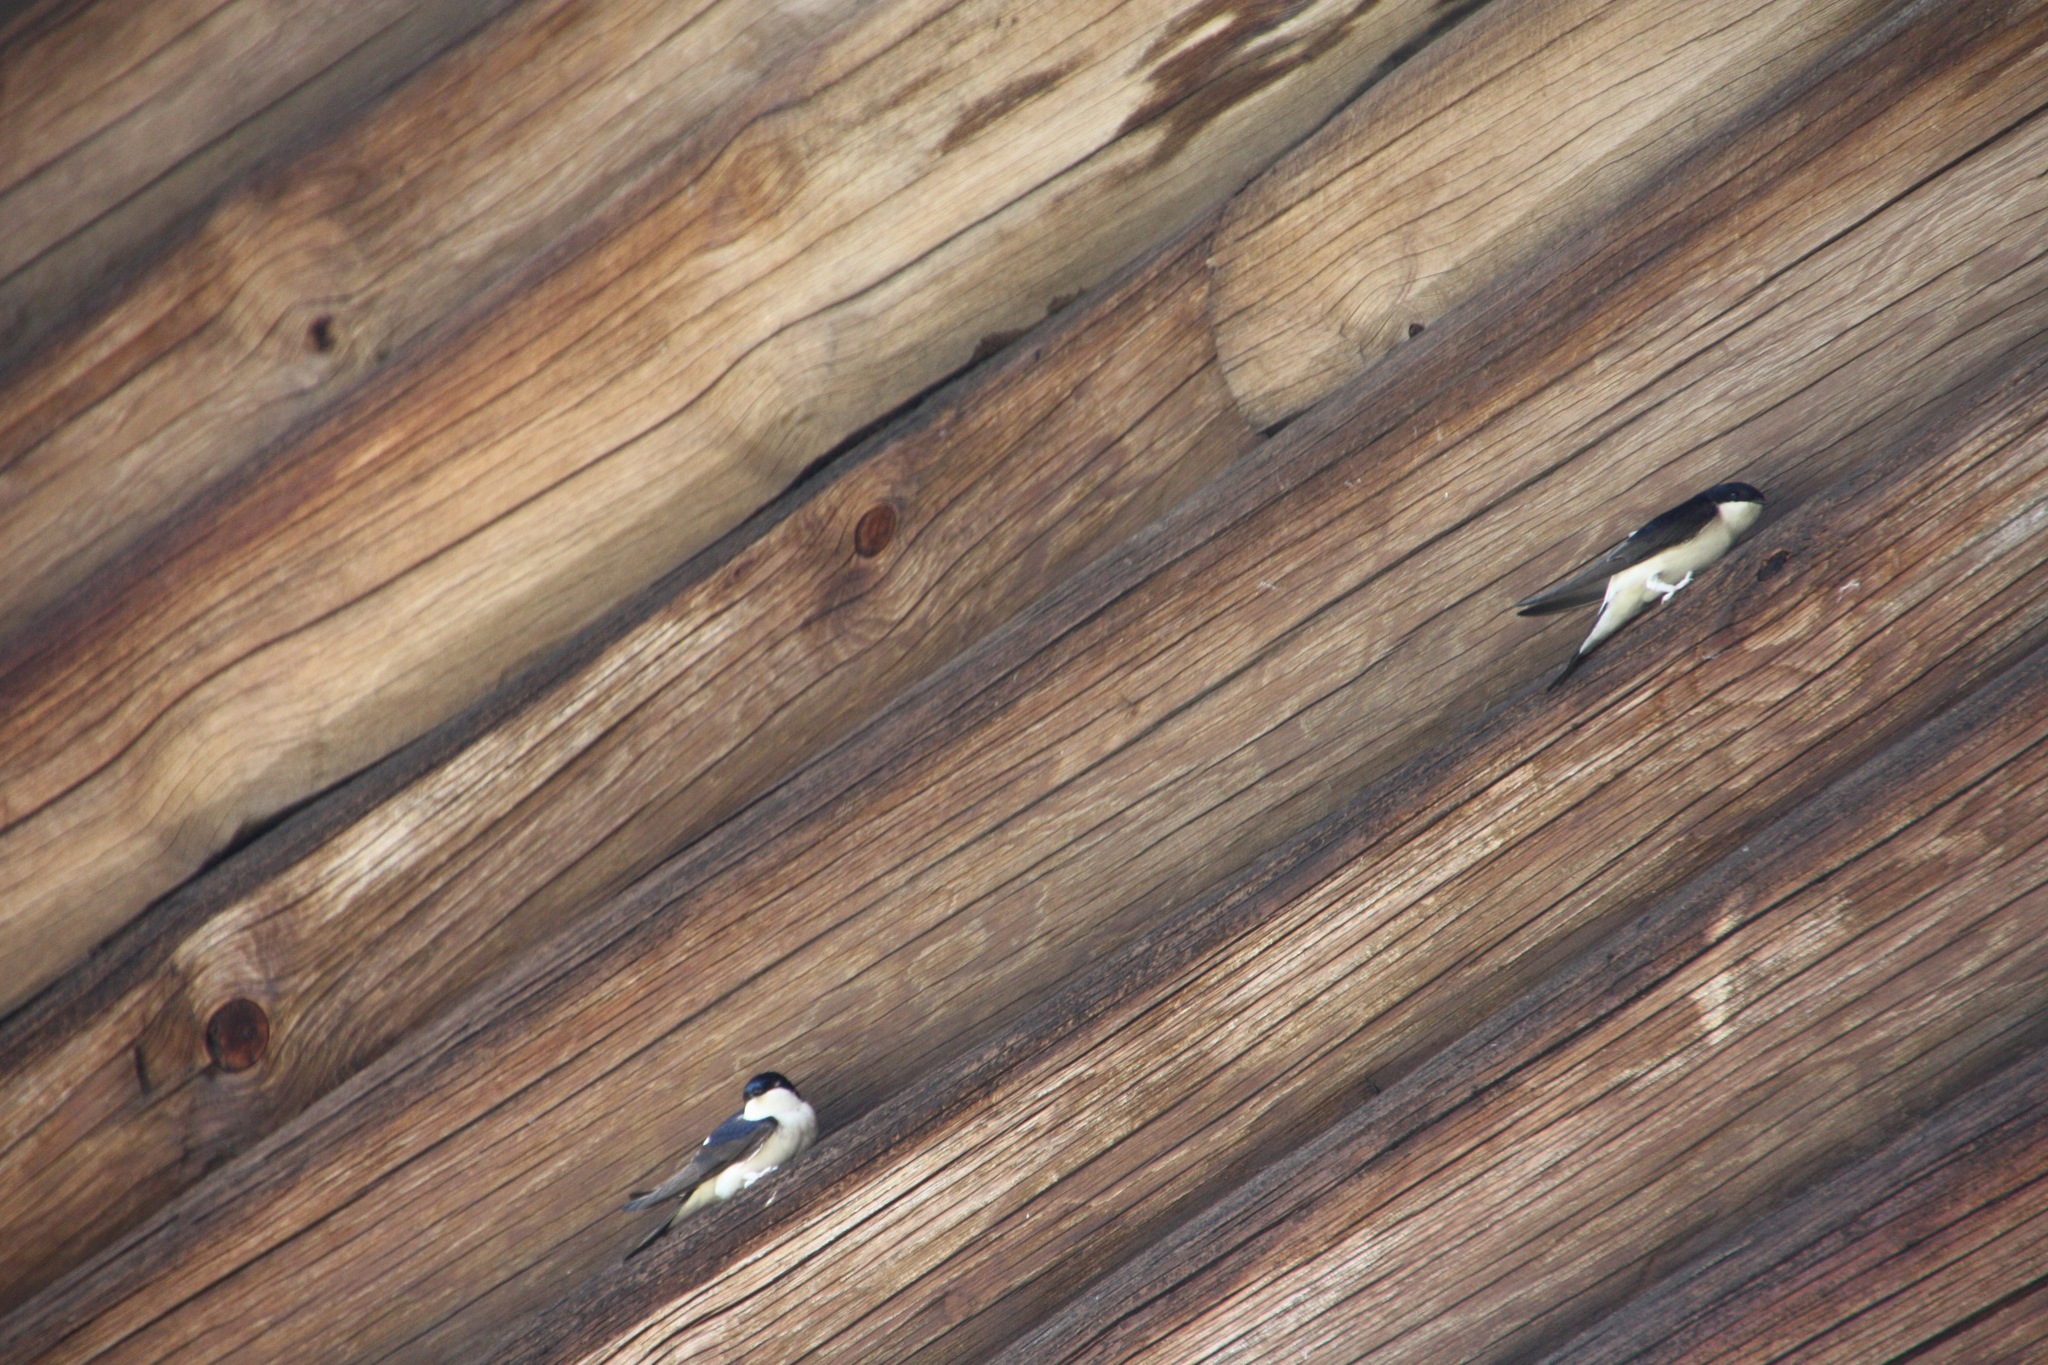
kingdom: Animalia
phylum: Chordata
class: Aves
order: Passeriformes
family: Hirundinidae
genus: Delichon
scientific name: Delichon urbicum
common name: Common house martin
